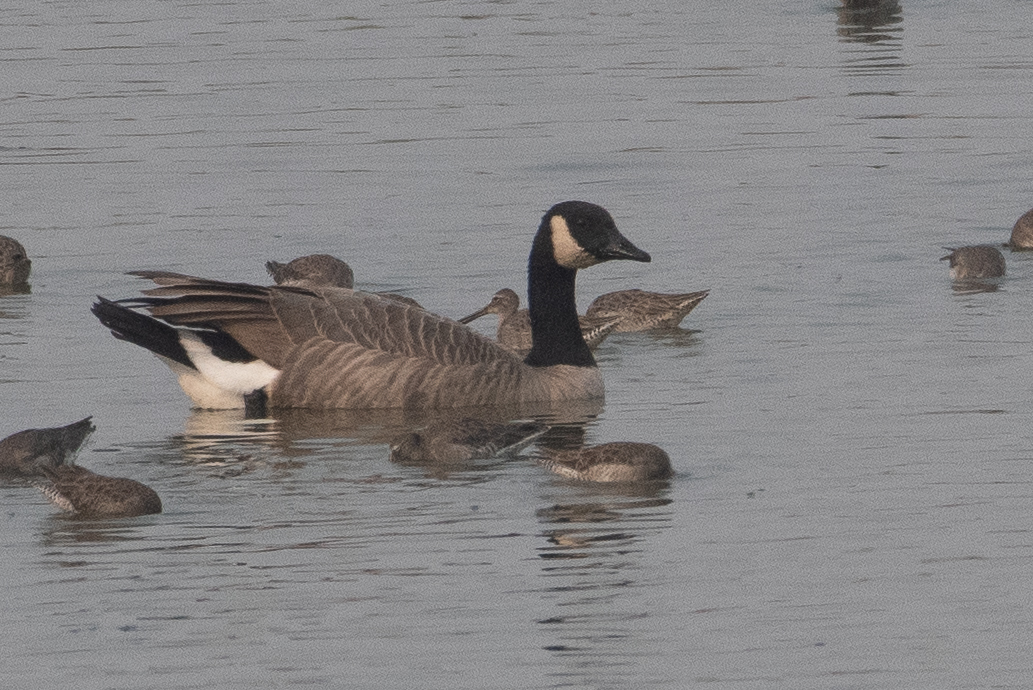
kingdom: Animalia
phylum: Chordata
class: Aves
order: Anseriformes
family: Anatidae
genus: Branta
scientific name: Branta canadensis
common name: Canada goose
